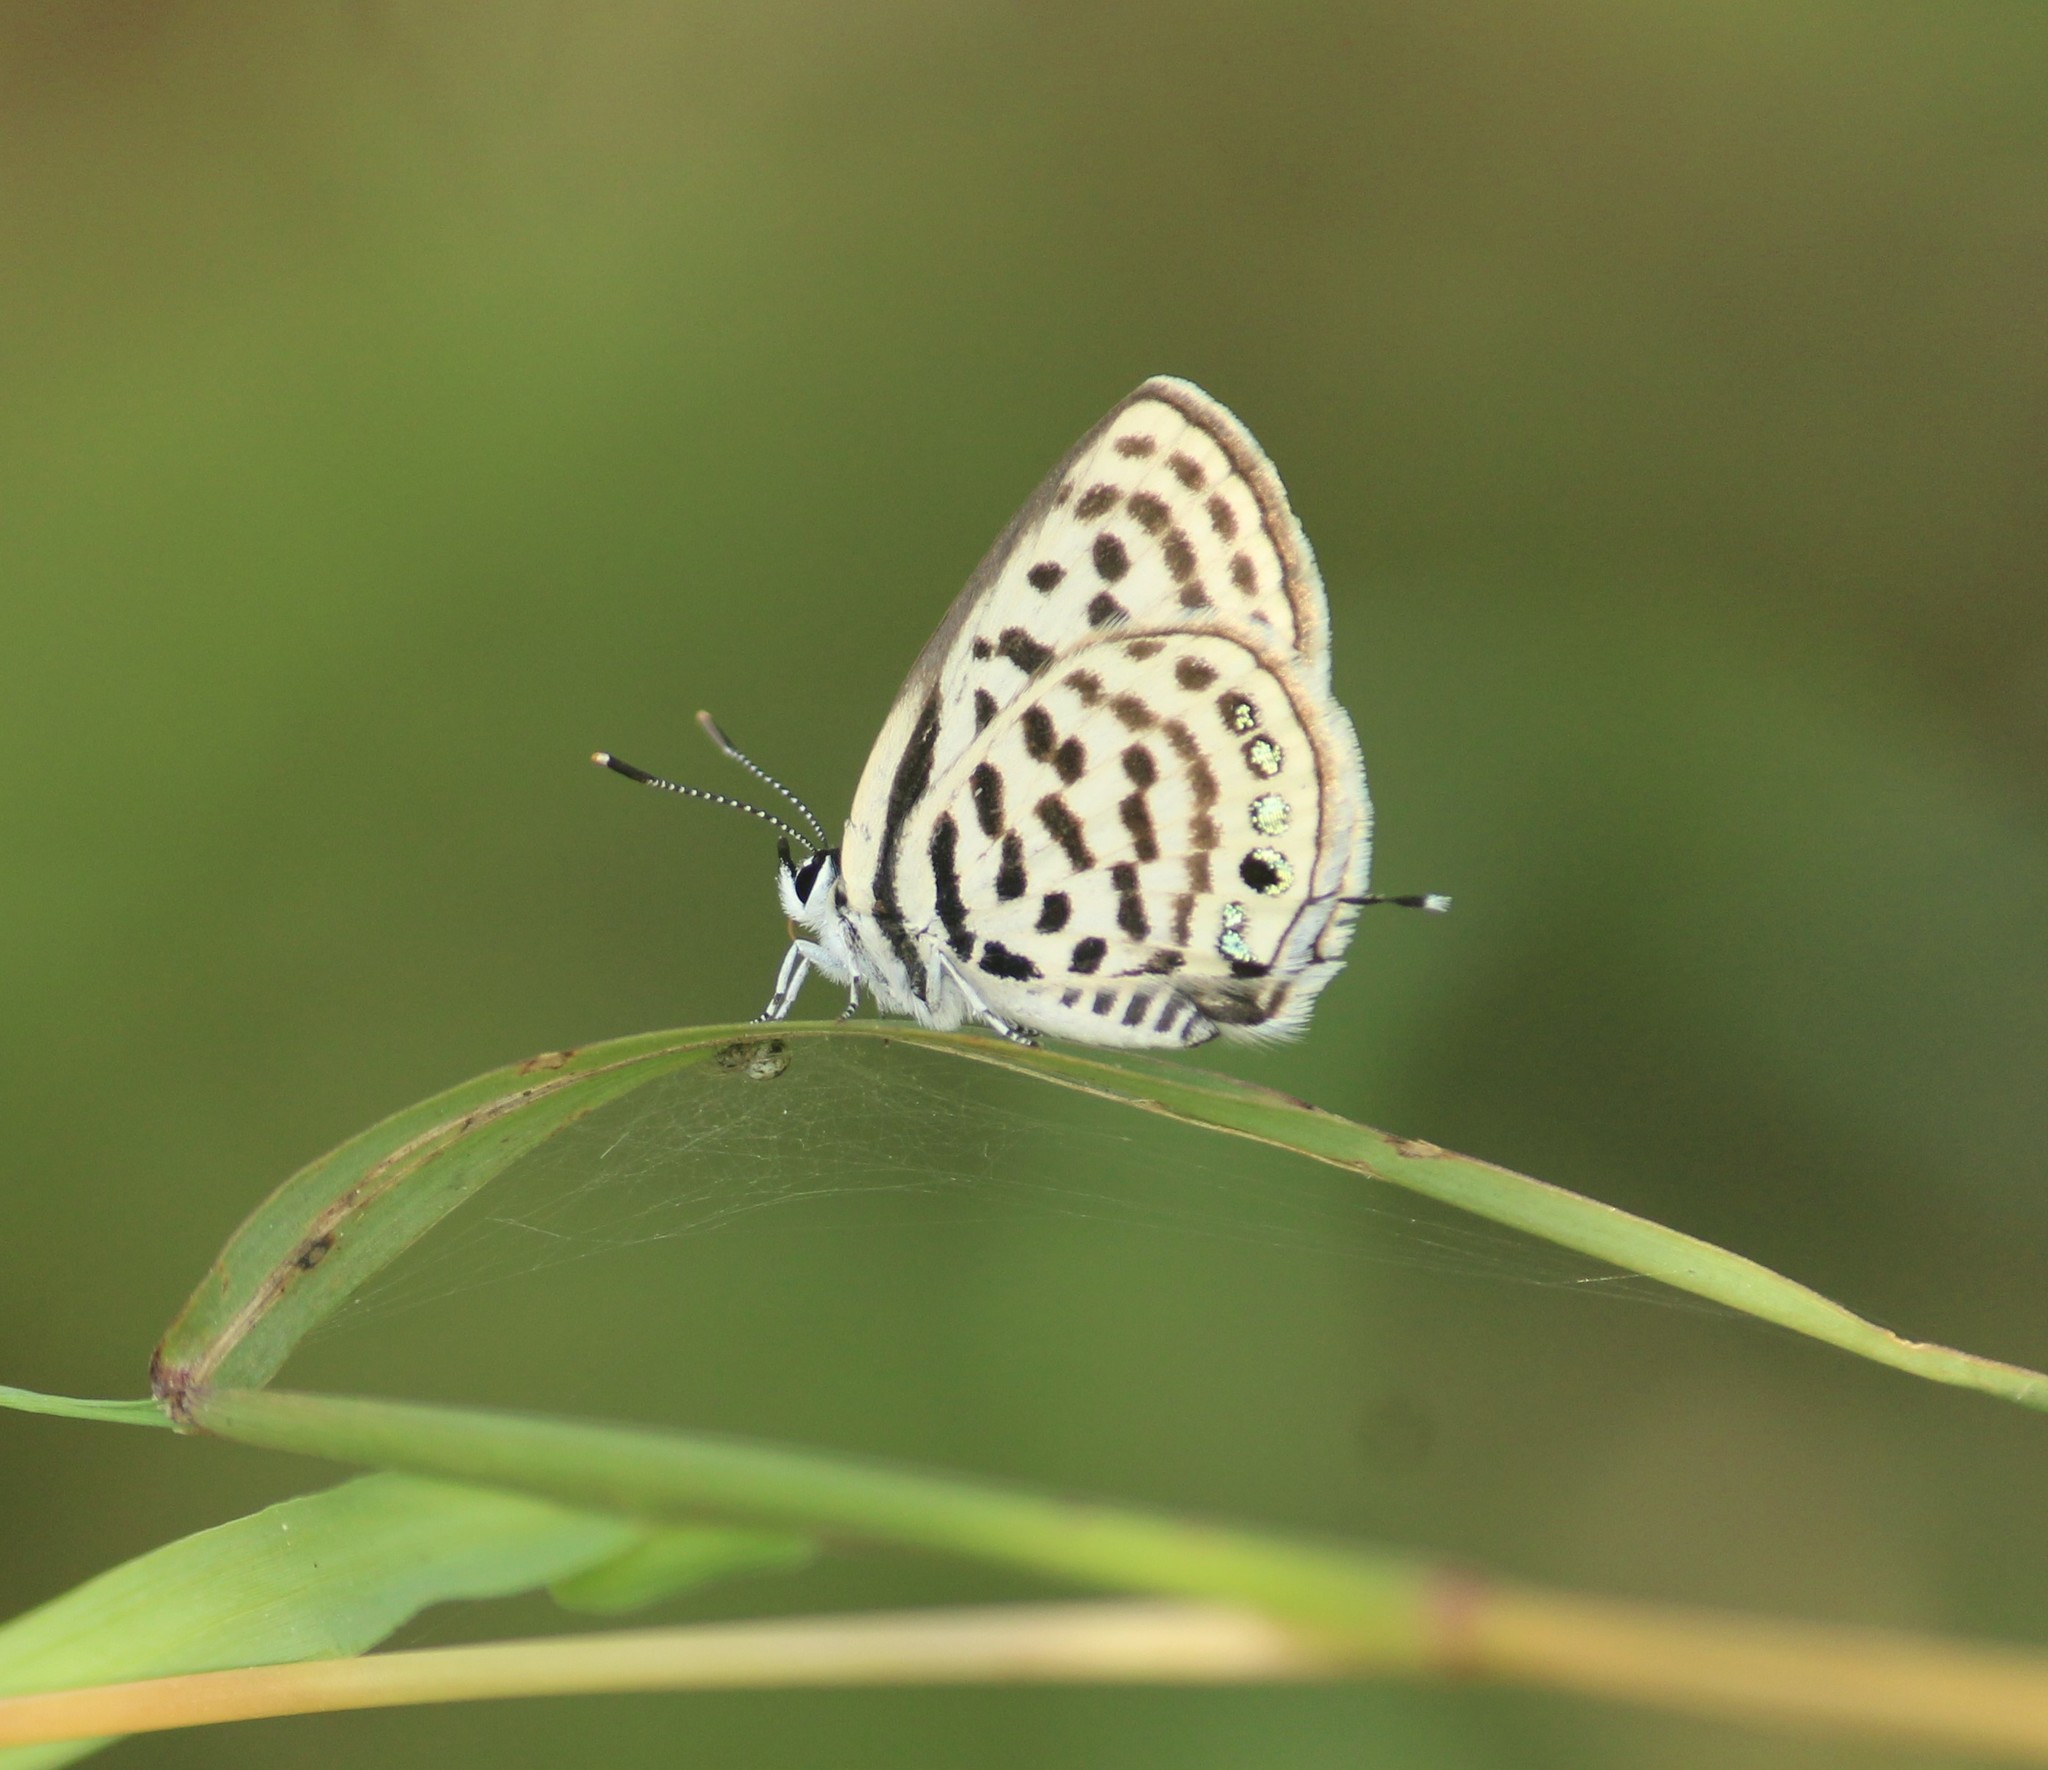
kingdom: Animalia
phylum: Arthropoda
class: Insecta
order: Lepidoptera
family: Lycaenidae
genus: Tarucus
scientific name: Tarucus balkanica
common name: Little tiger blue
